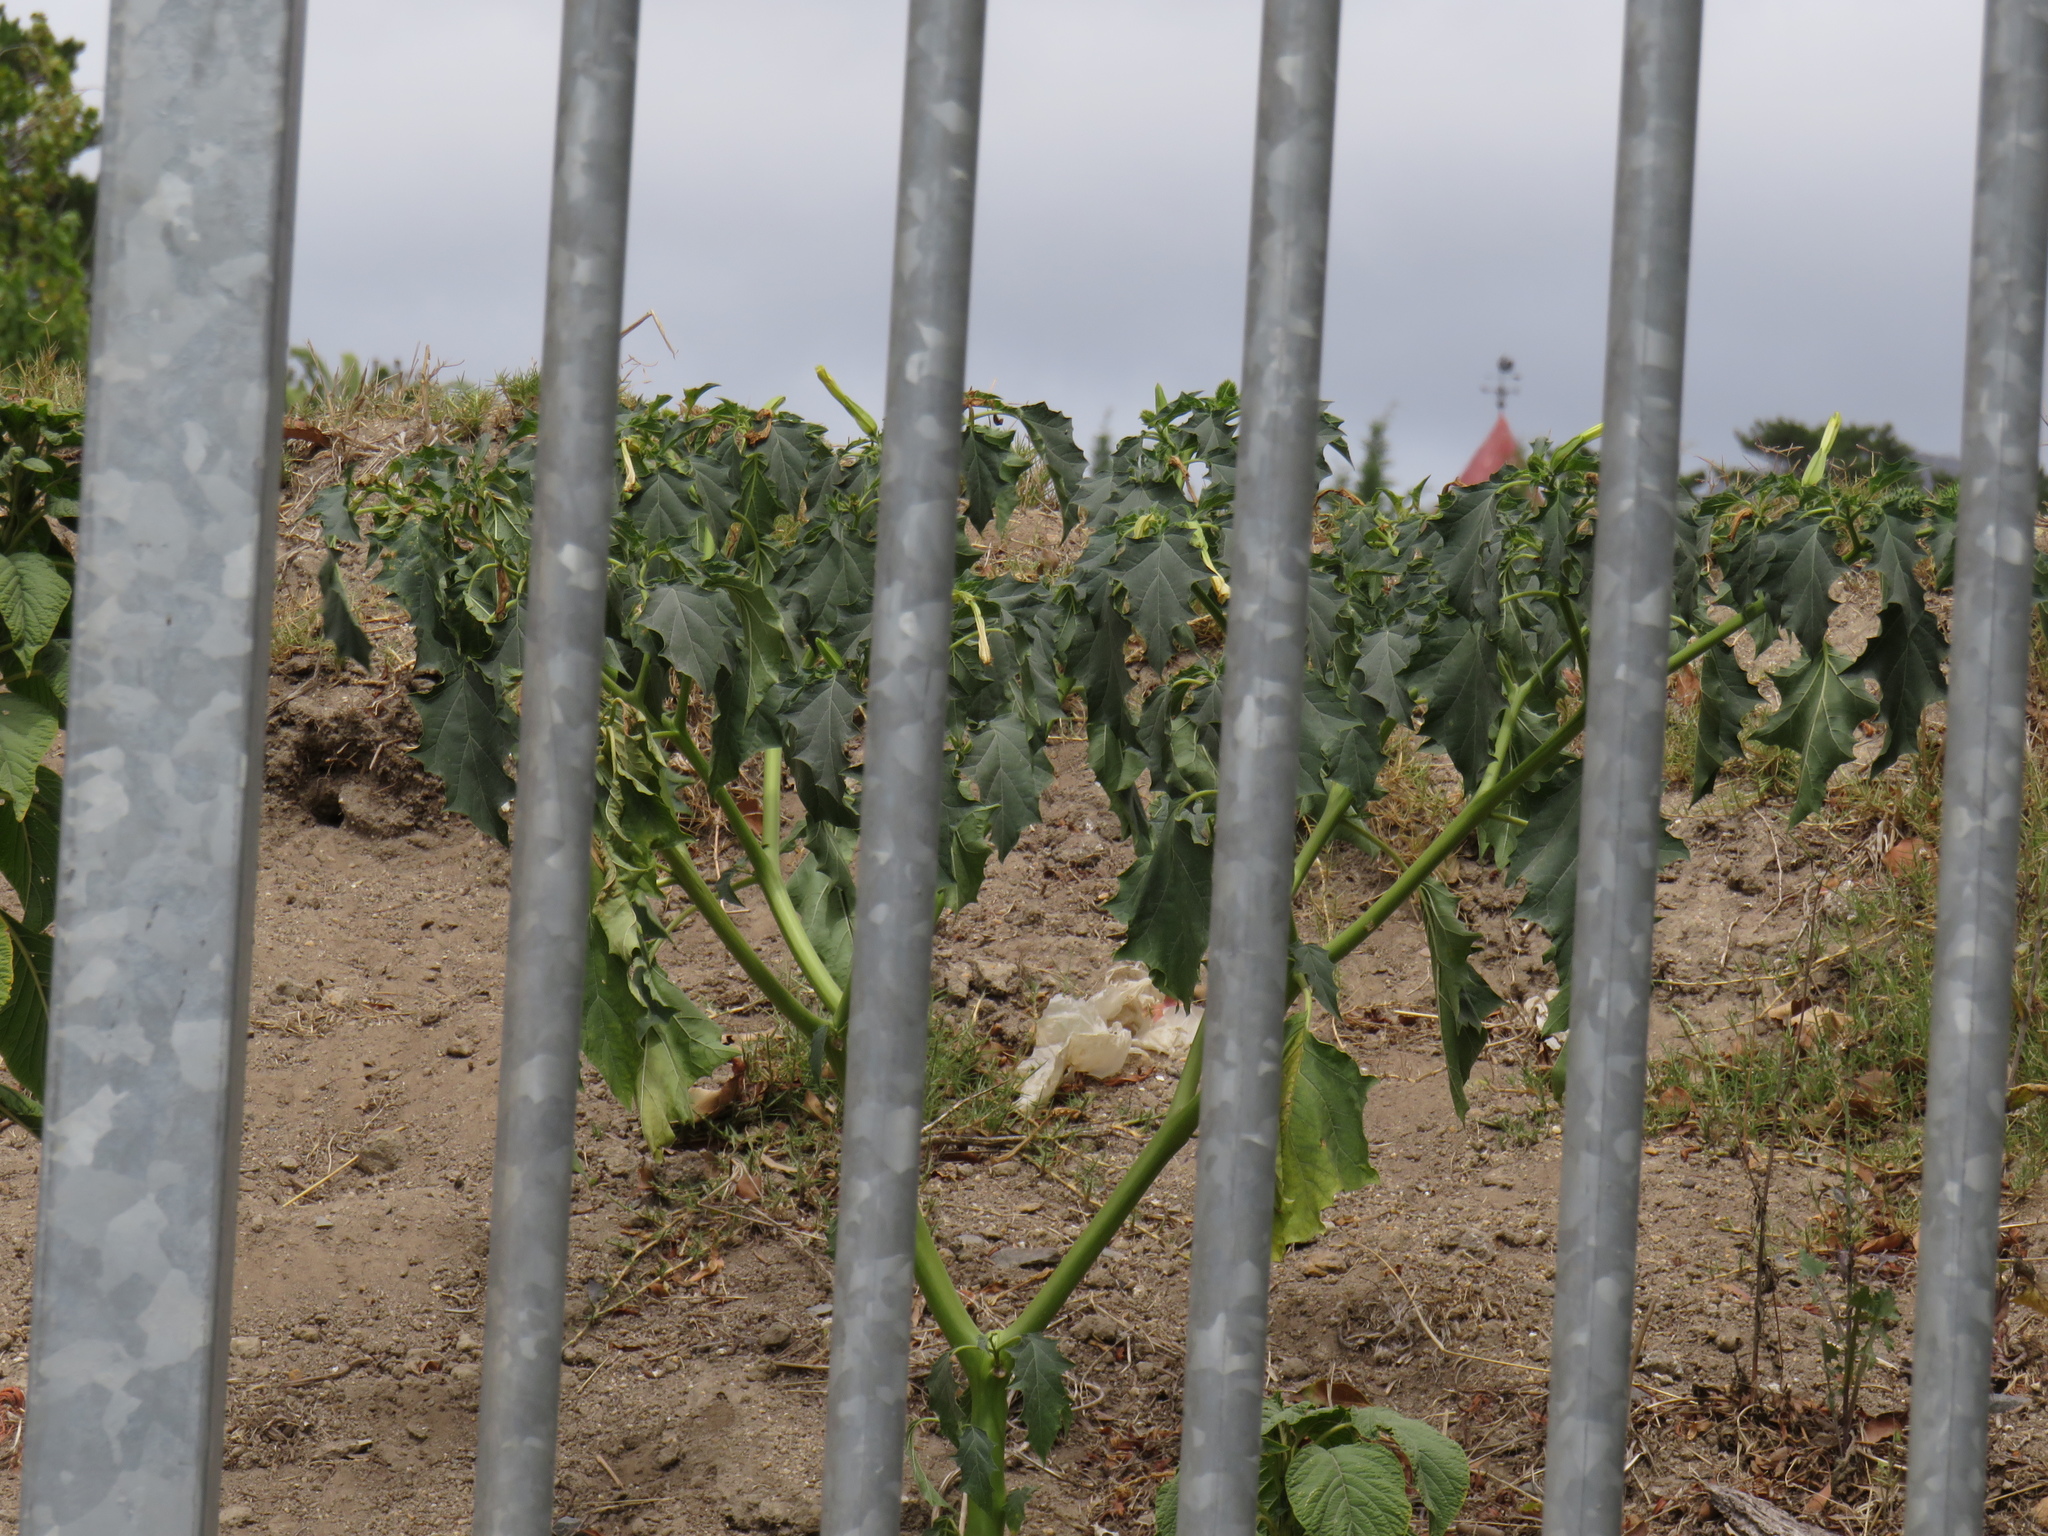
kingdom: Plantae
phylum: Tracheophyta
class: Magnoliopsida
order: Solanales
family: Solanaceae
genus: Datura
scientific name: Datura stramonium
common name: Thorn-apple
